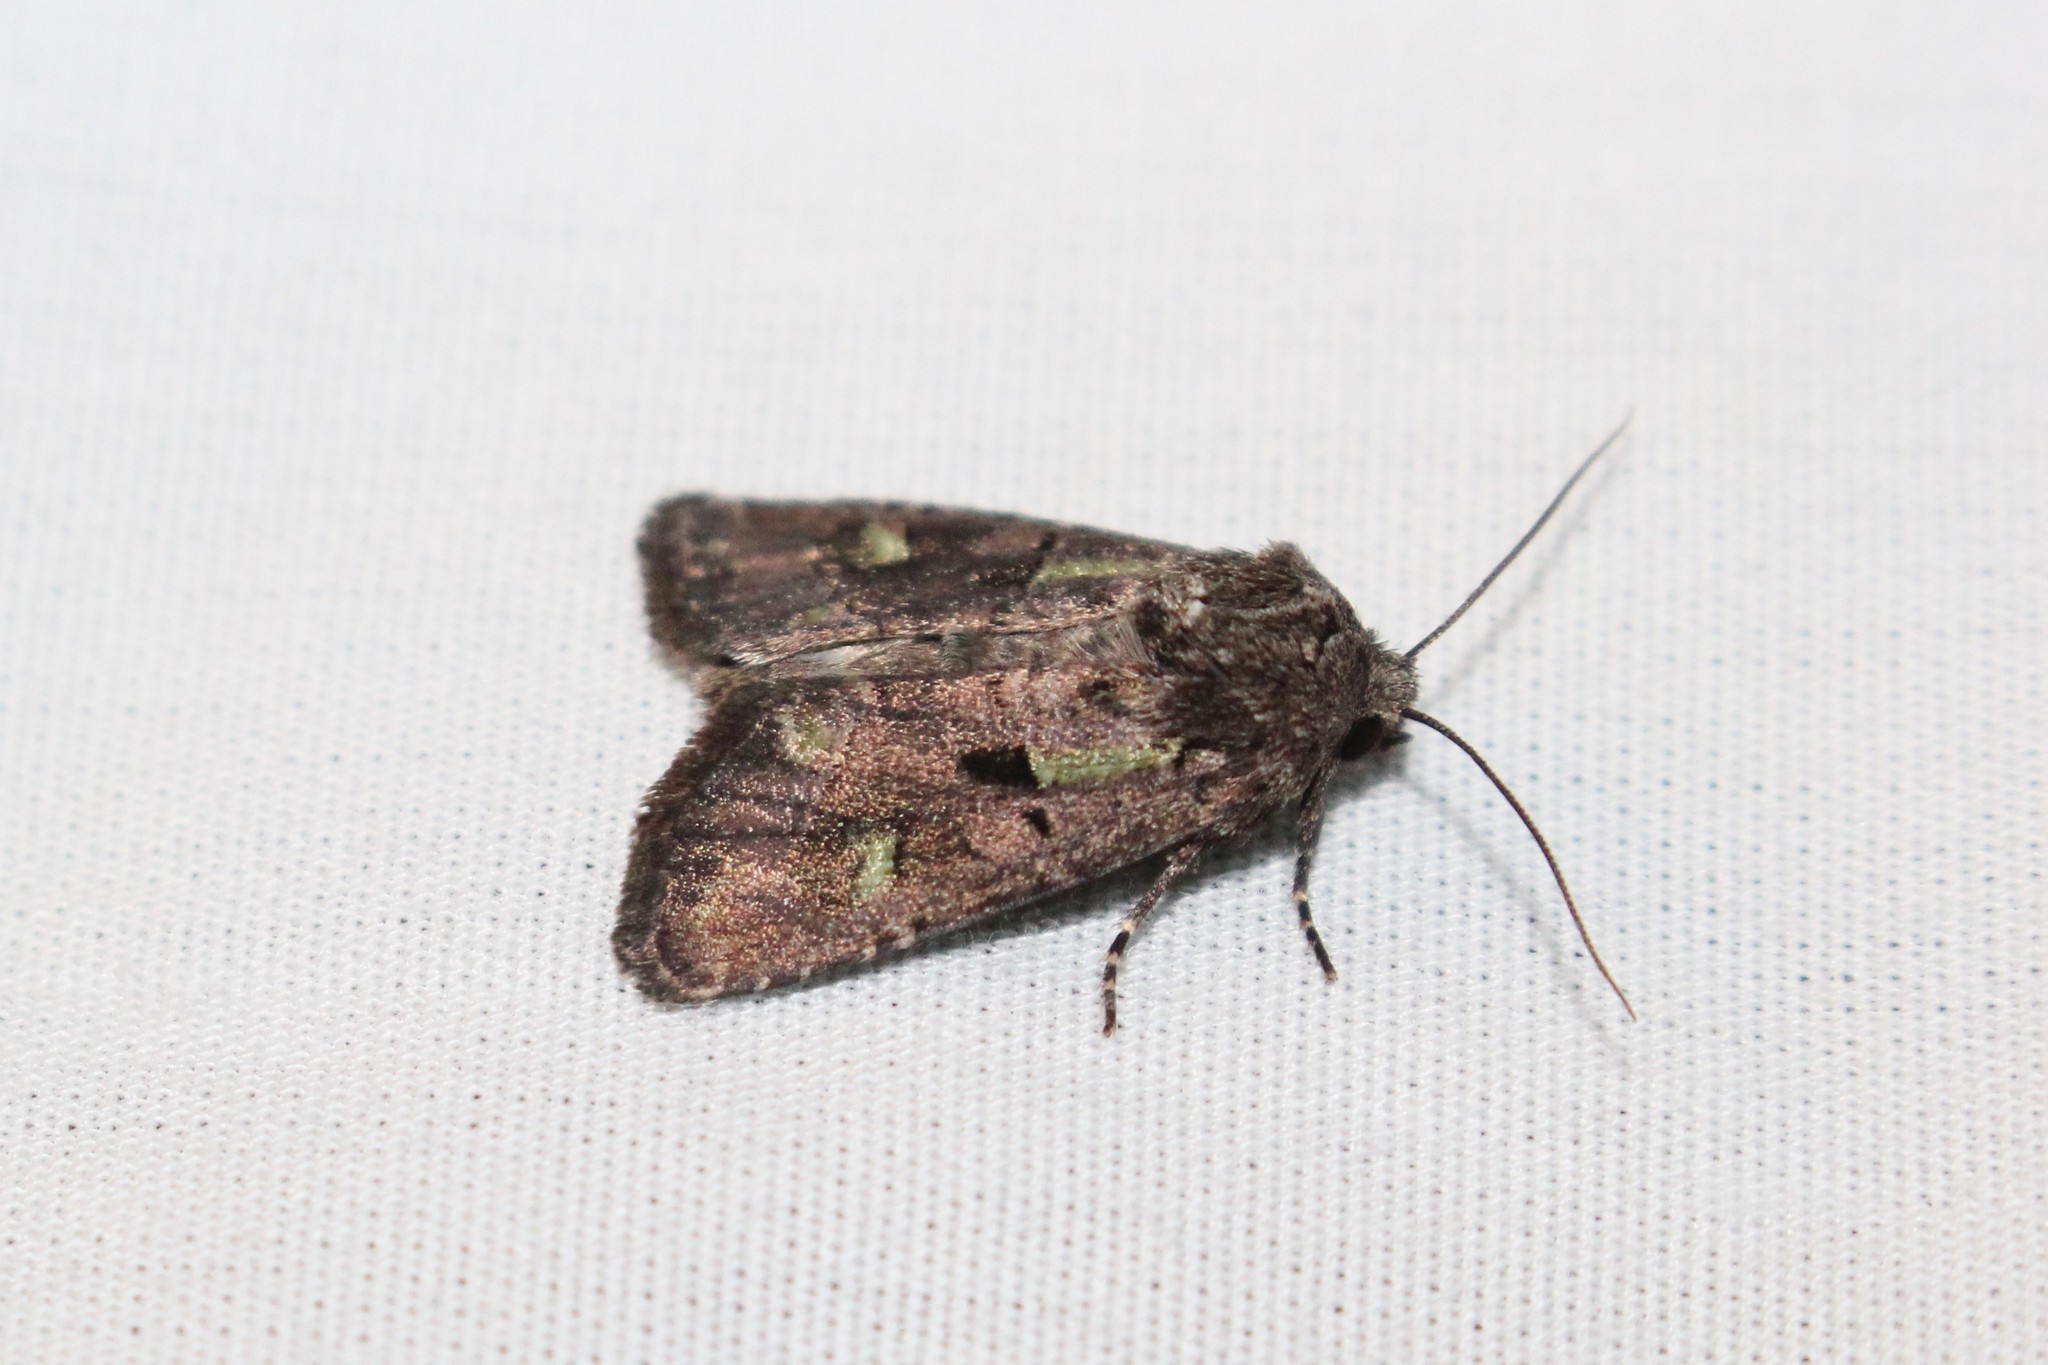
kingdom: Animalia
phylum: Arthropoda
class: Insecta
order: Lepidoptera
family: Noctuidae
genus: Lacinipolia
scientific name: Lacinipolia renigera
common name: Kidney-spotted minor
